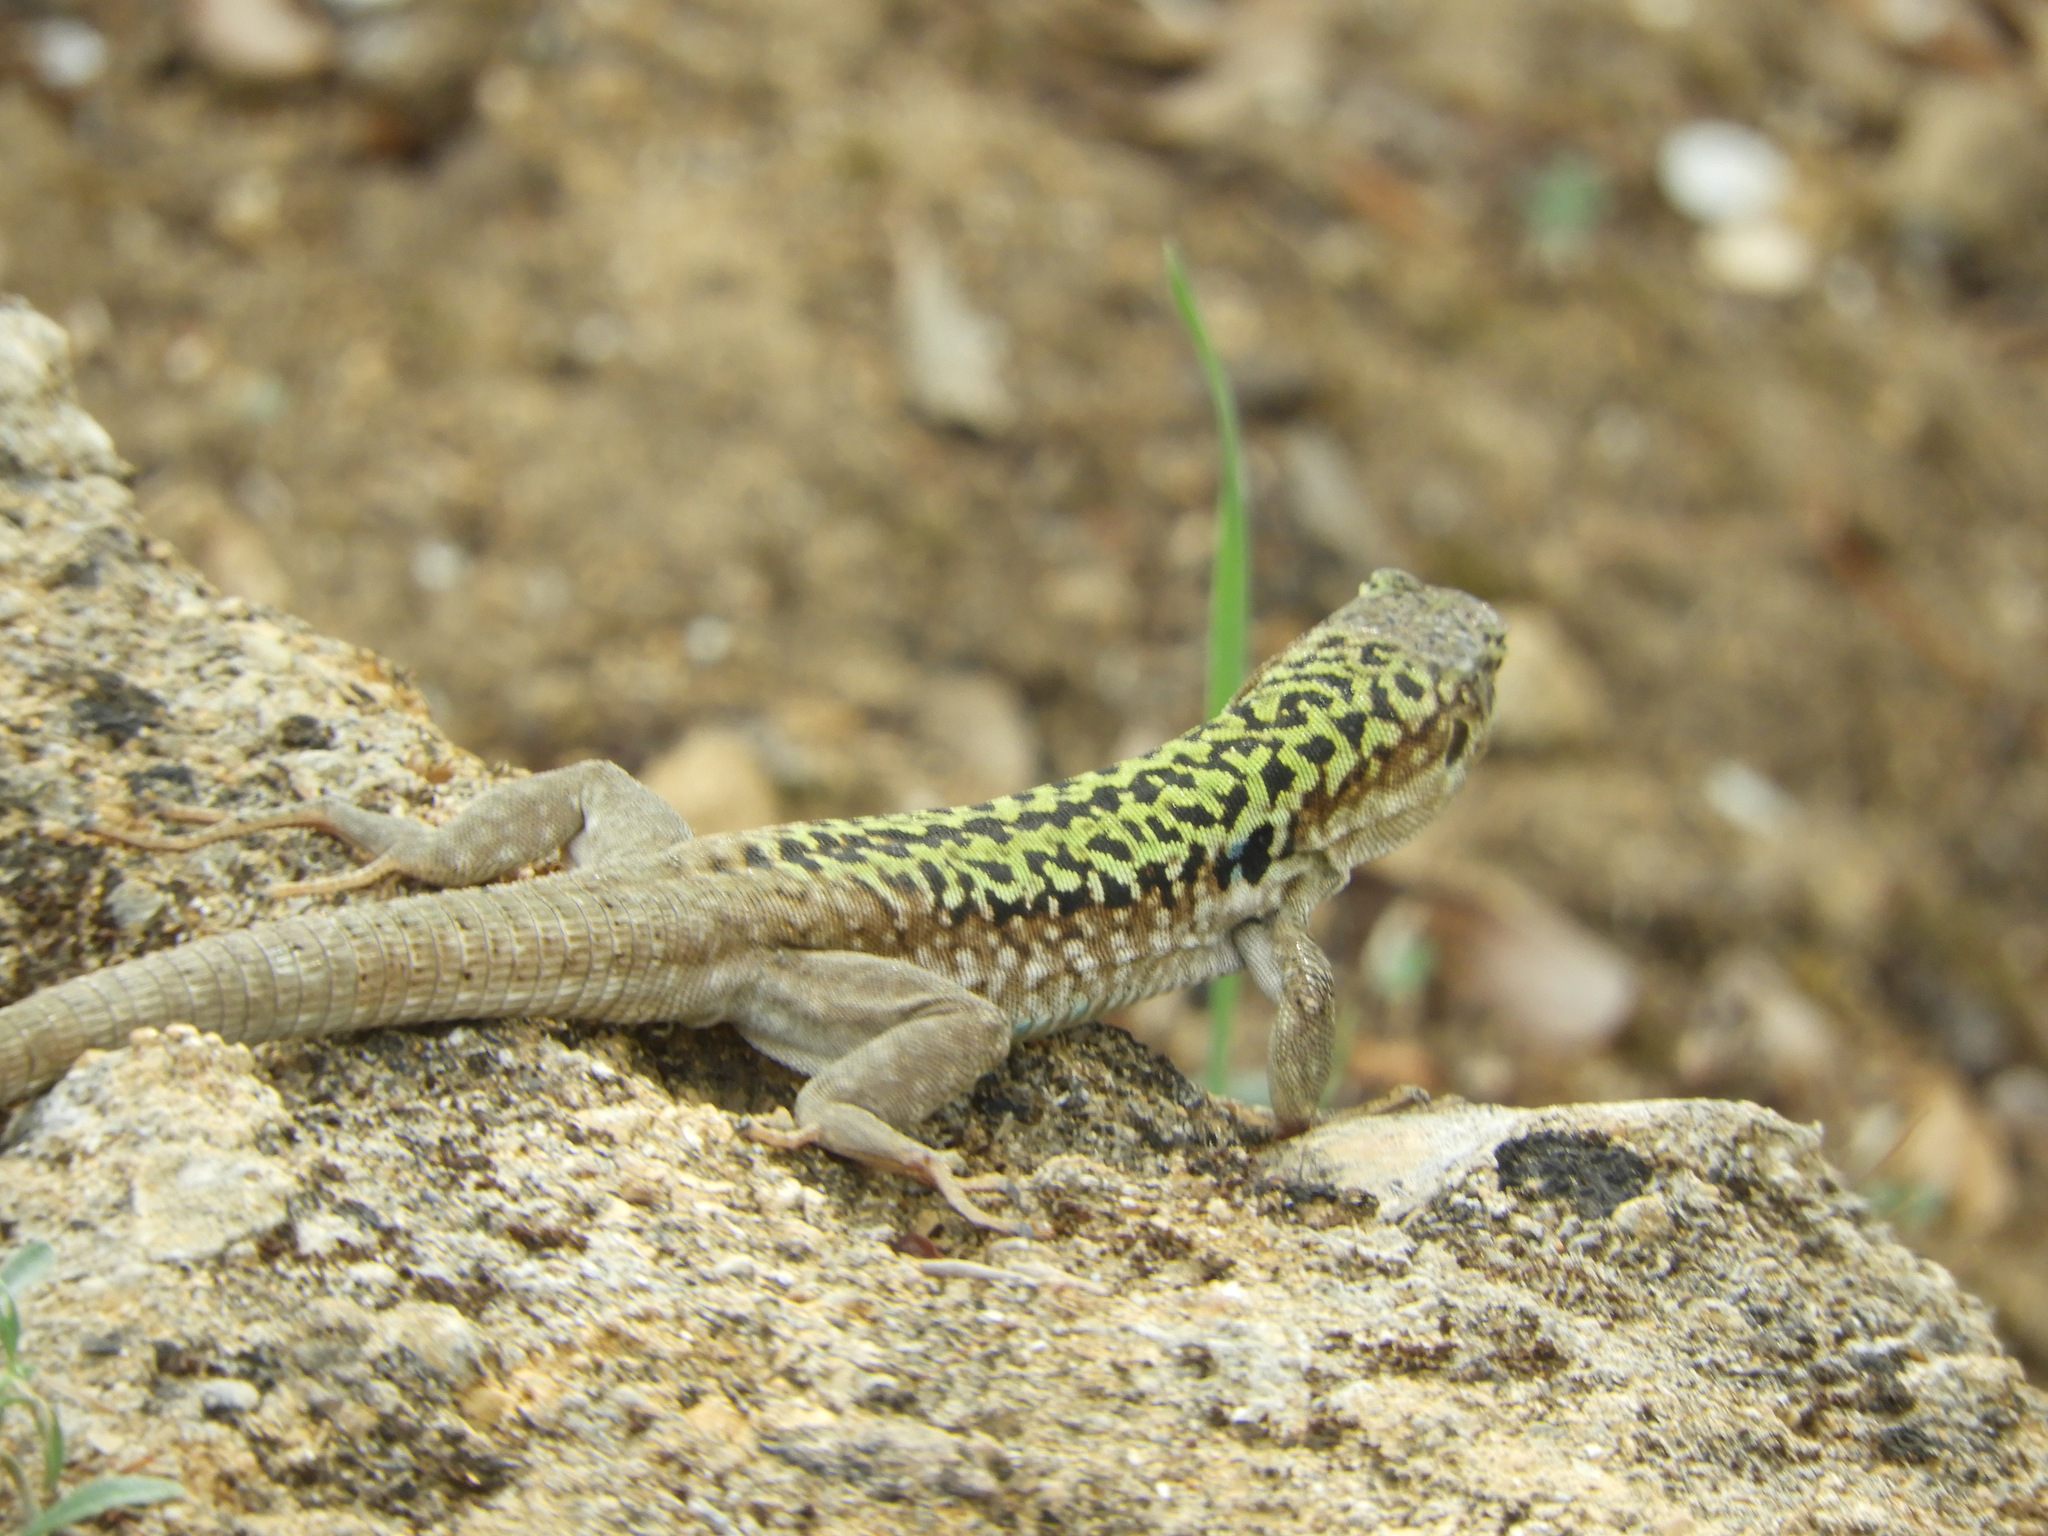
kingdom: Animalia
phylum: Chordata
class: Squamata
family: Lacertidae
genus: Podarcis
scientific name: Podarcis siculus
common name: Italian wall lizard
